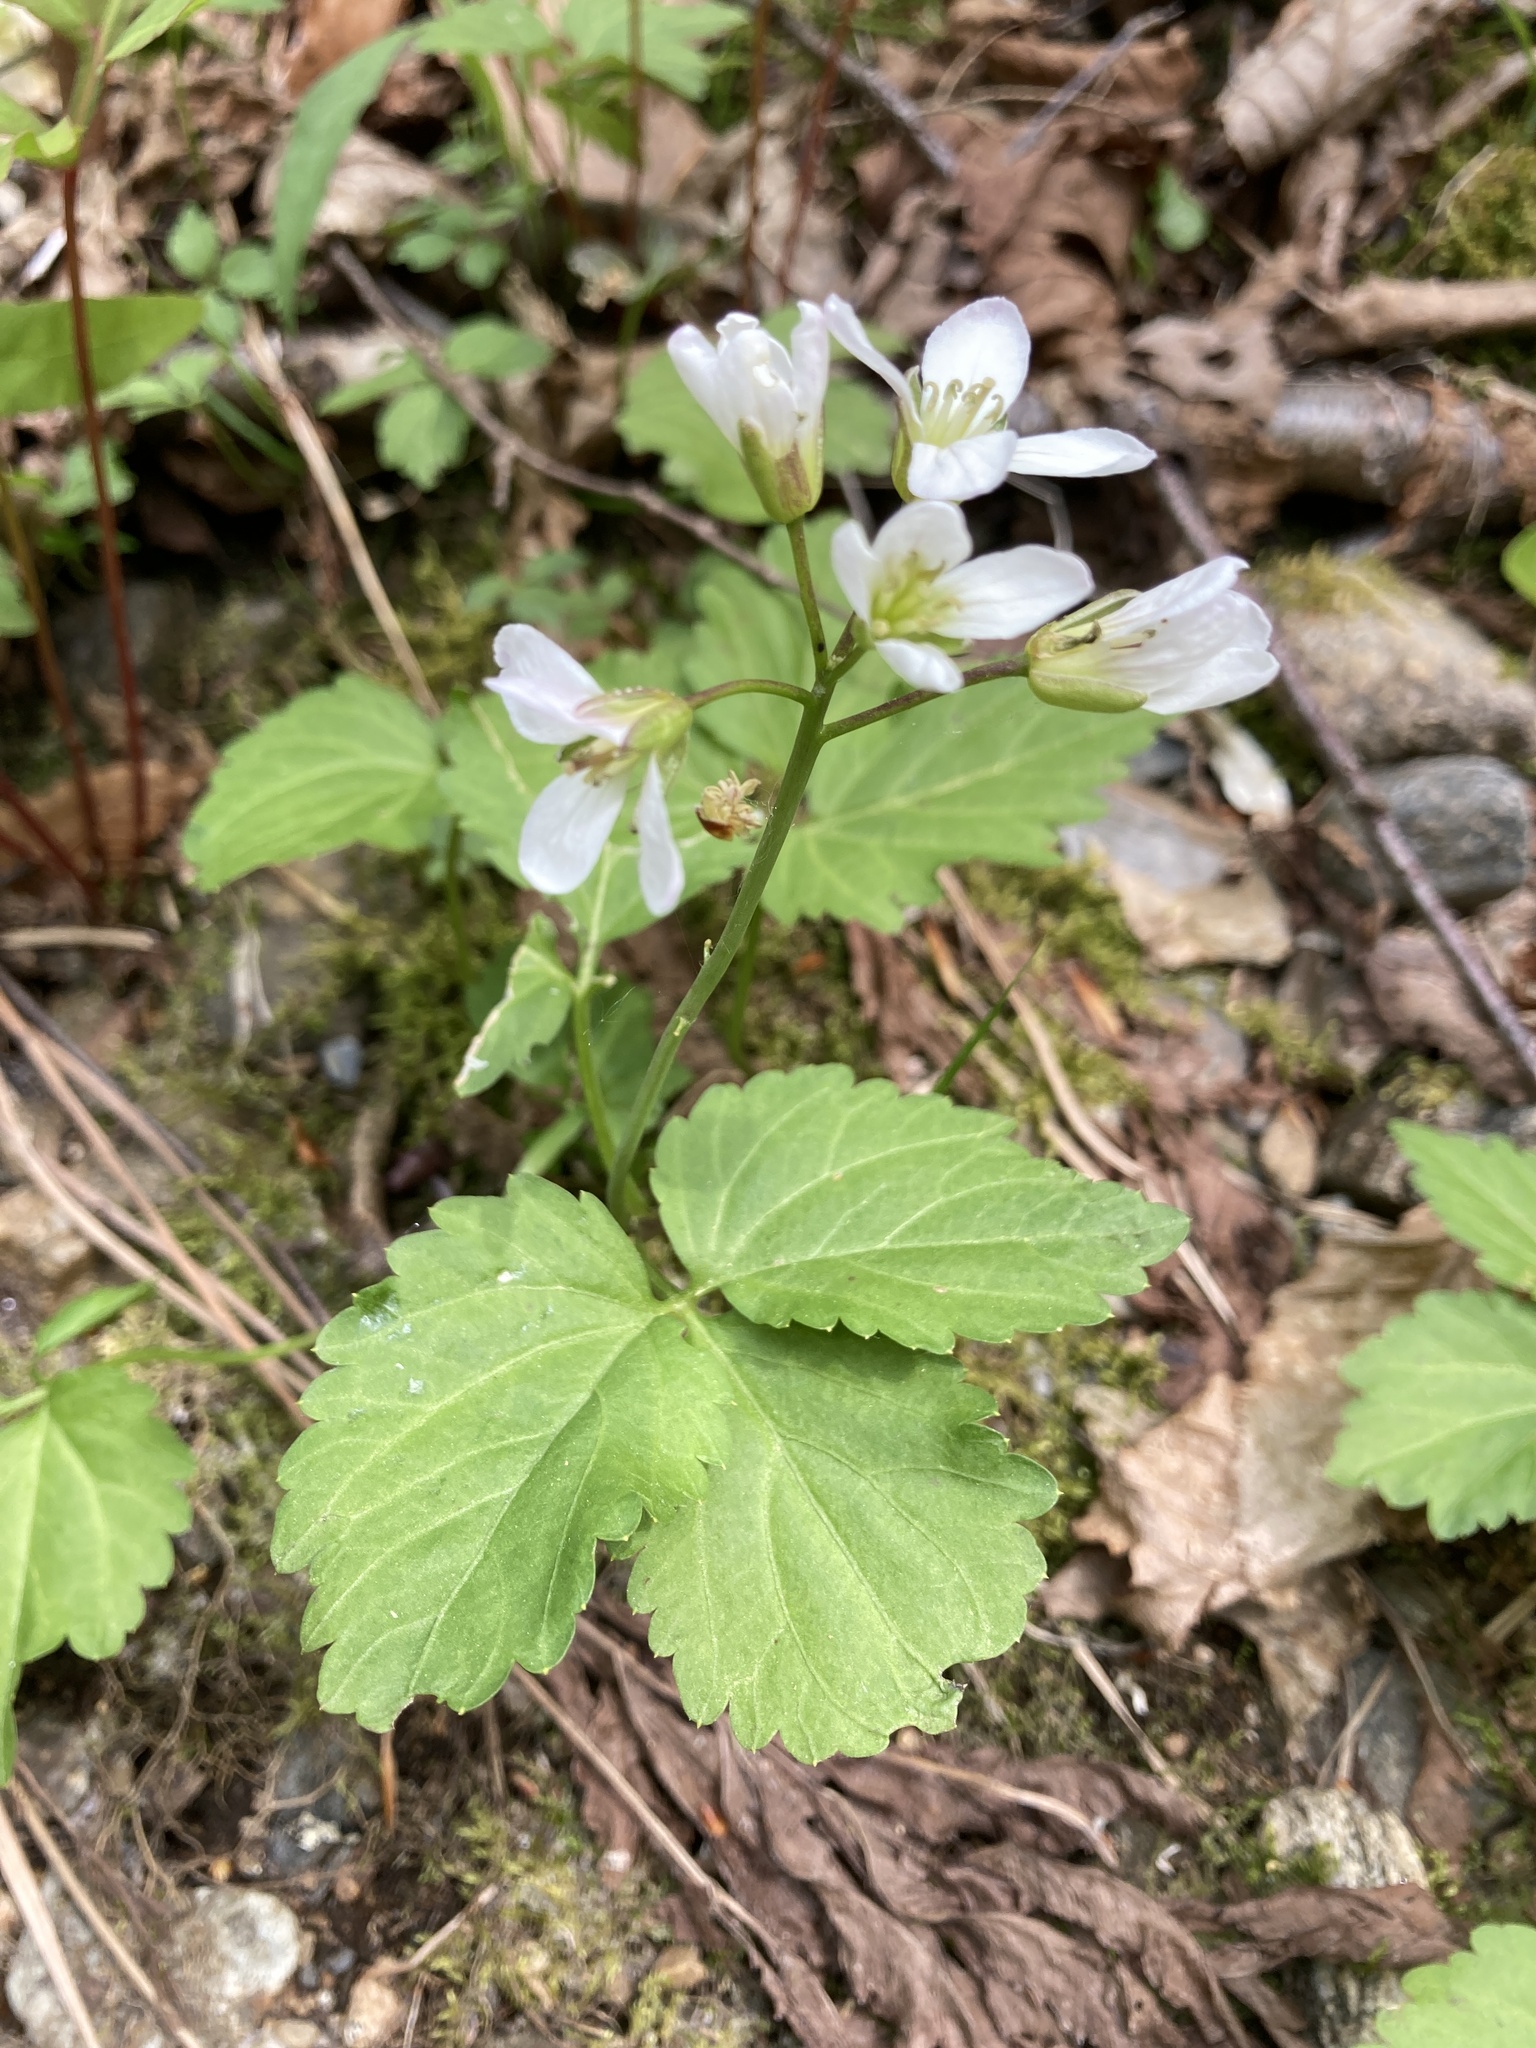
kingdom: Plantae
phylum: Tracheophyta
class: Magnoliopsida
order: Brassicales
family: Brassicaceae
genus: Cardamine
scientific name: Cardamine diphylla
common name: Broad-leaved toothwort
